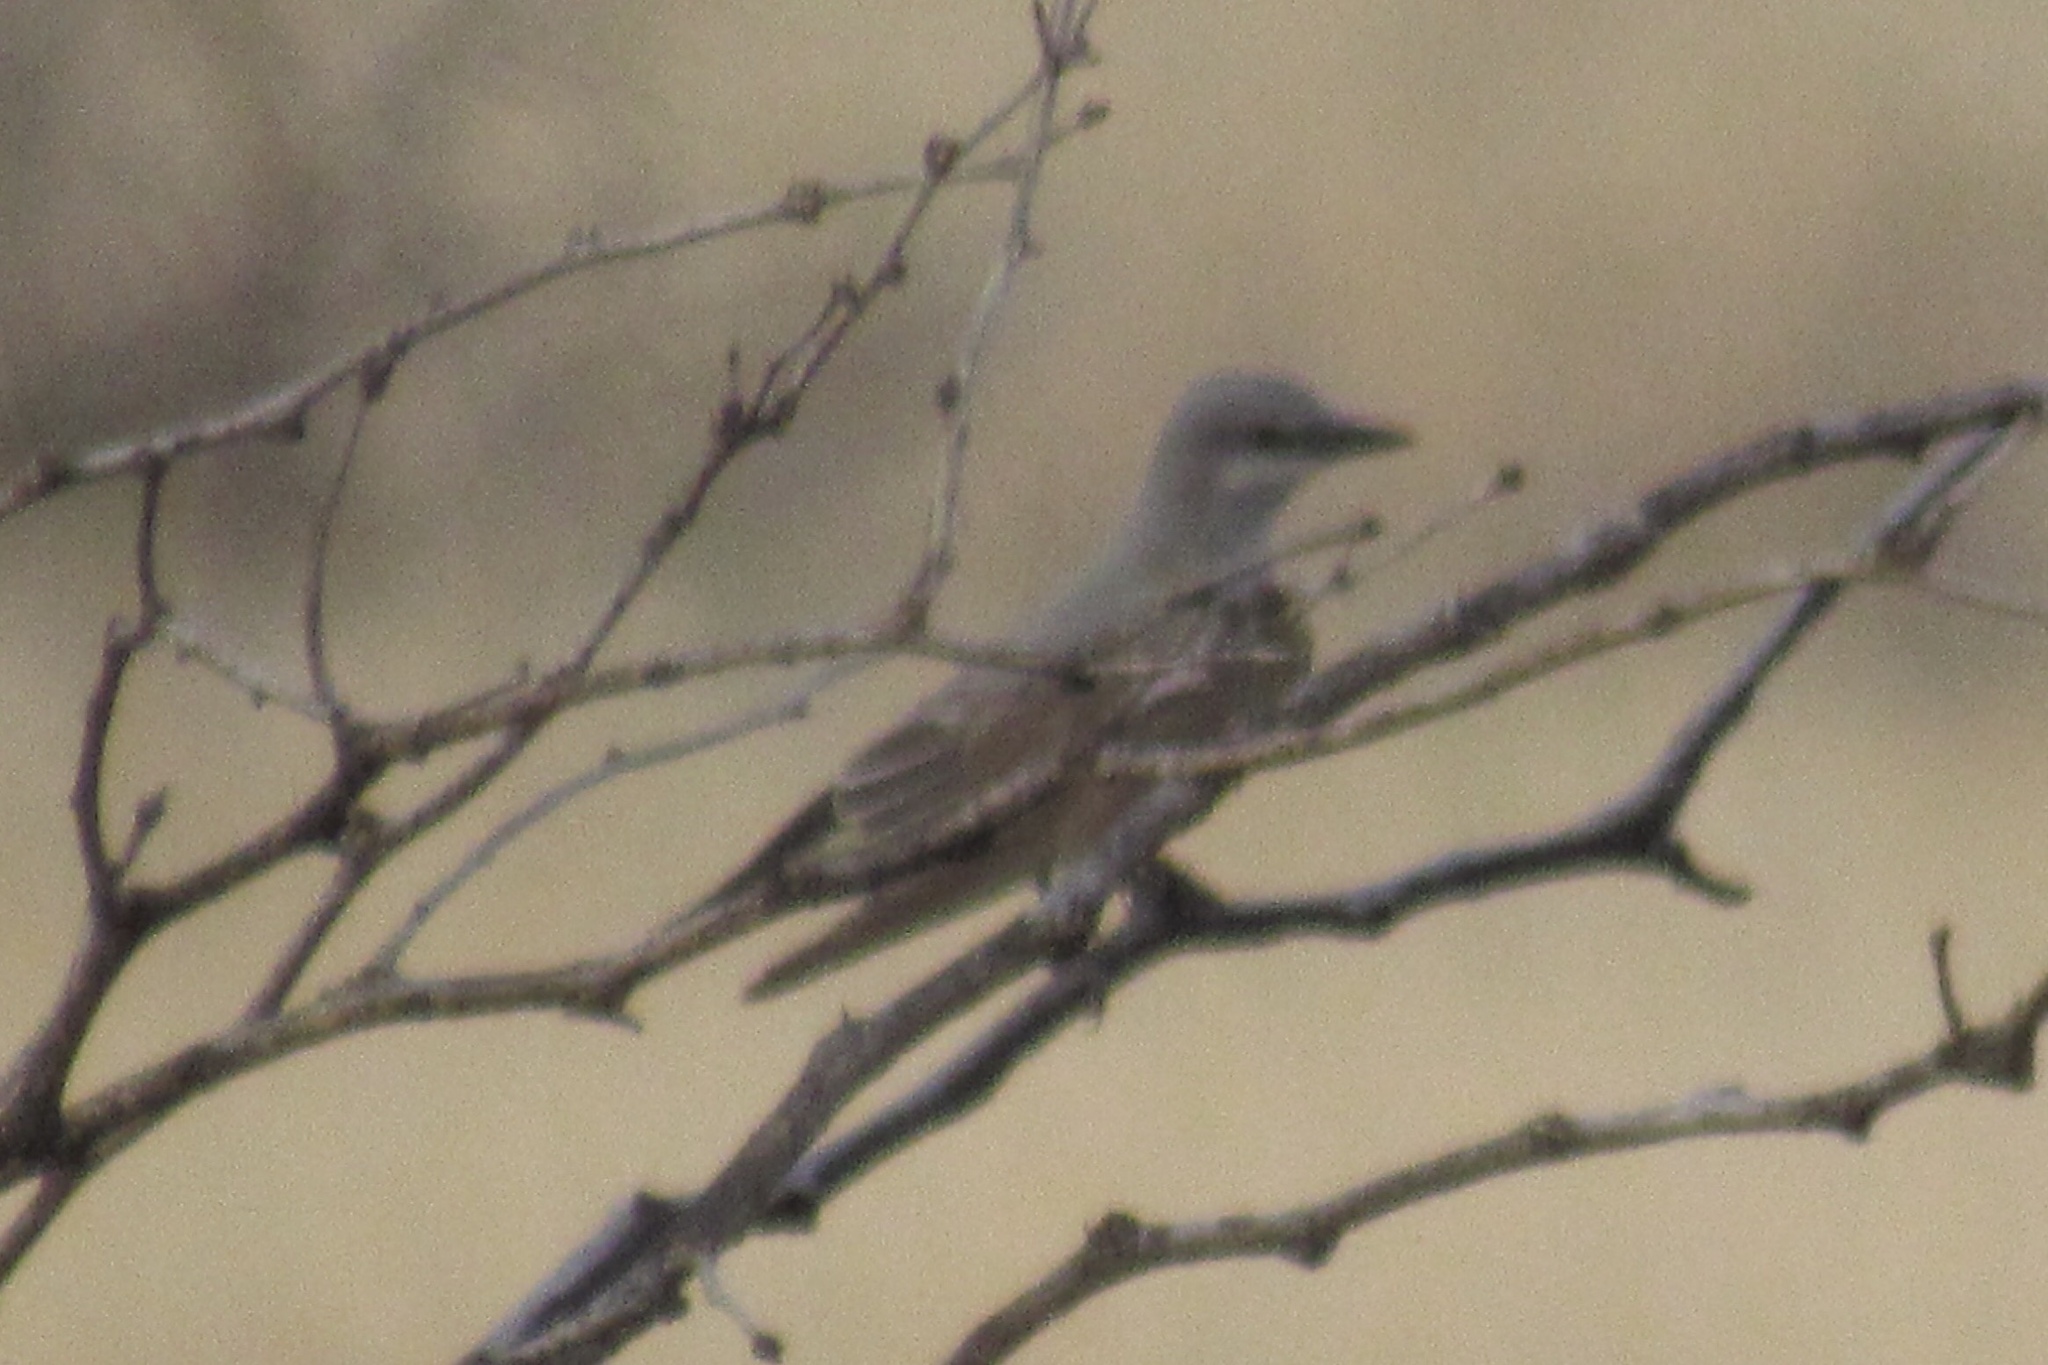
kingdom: Animalia
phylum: Chordata
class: Aves
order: Passeriformes
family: Tyrannidae
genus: Tyrannus
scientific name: Tyrannus vociferans
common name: Cassin's kingbird
